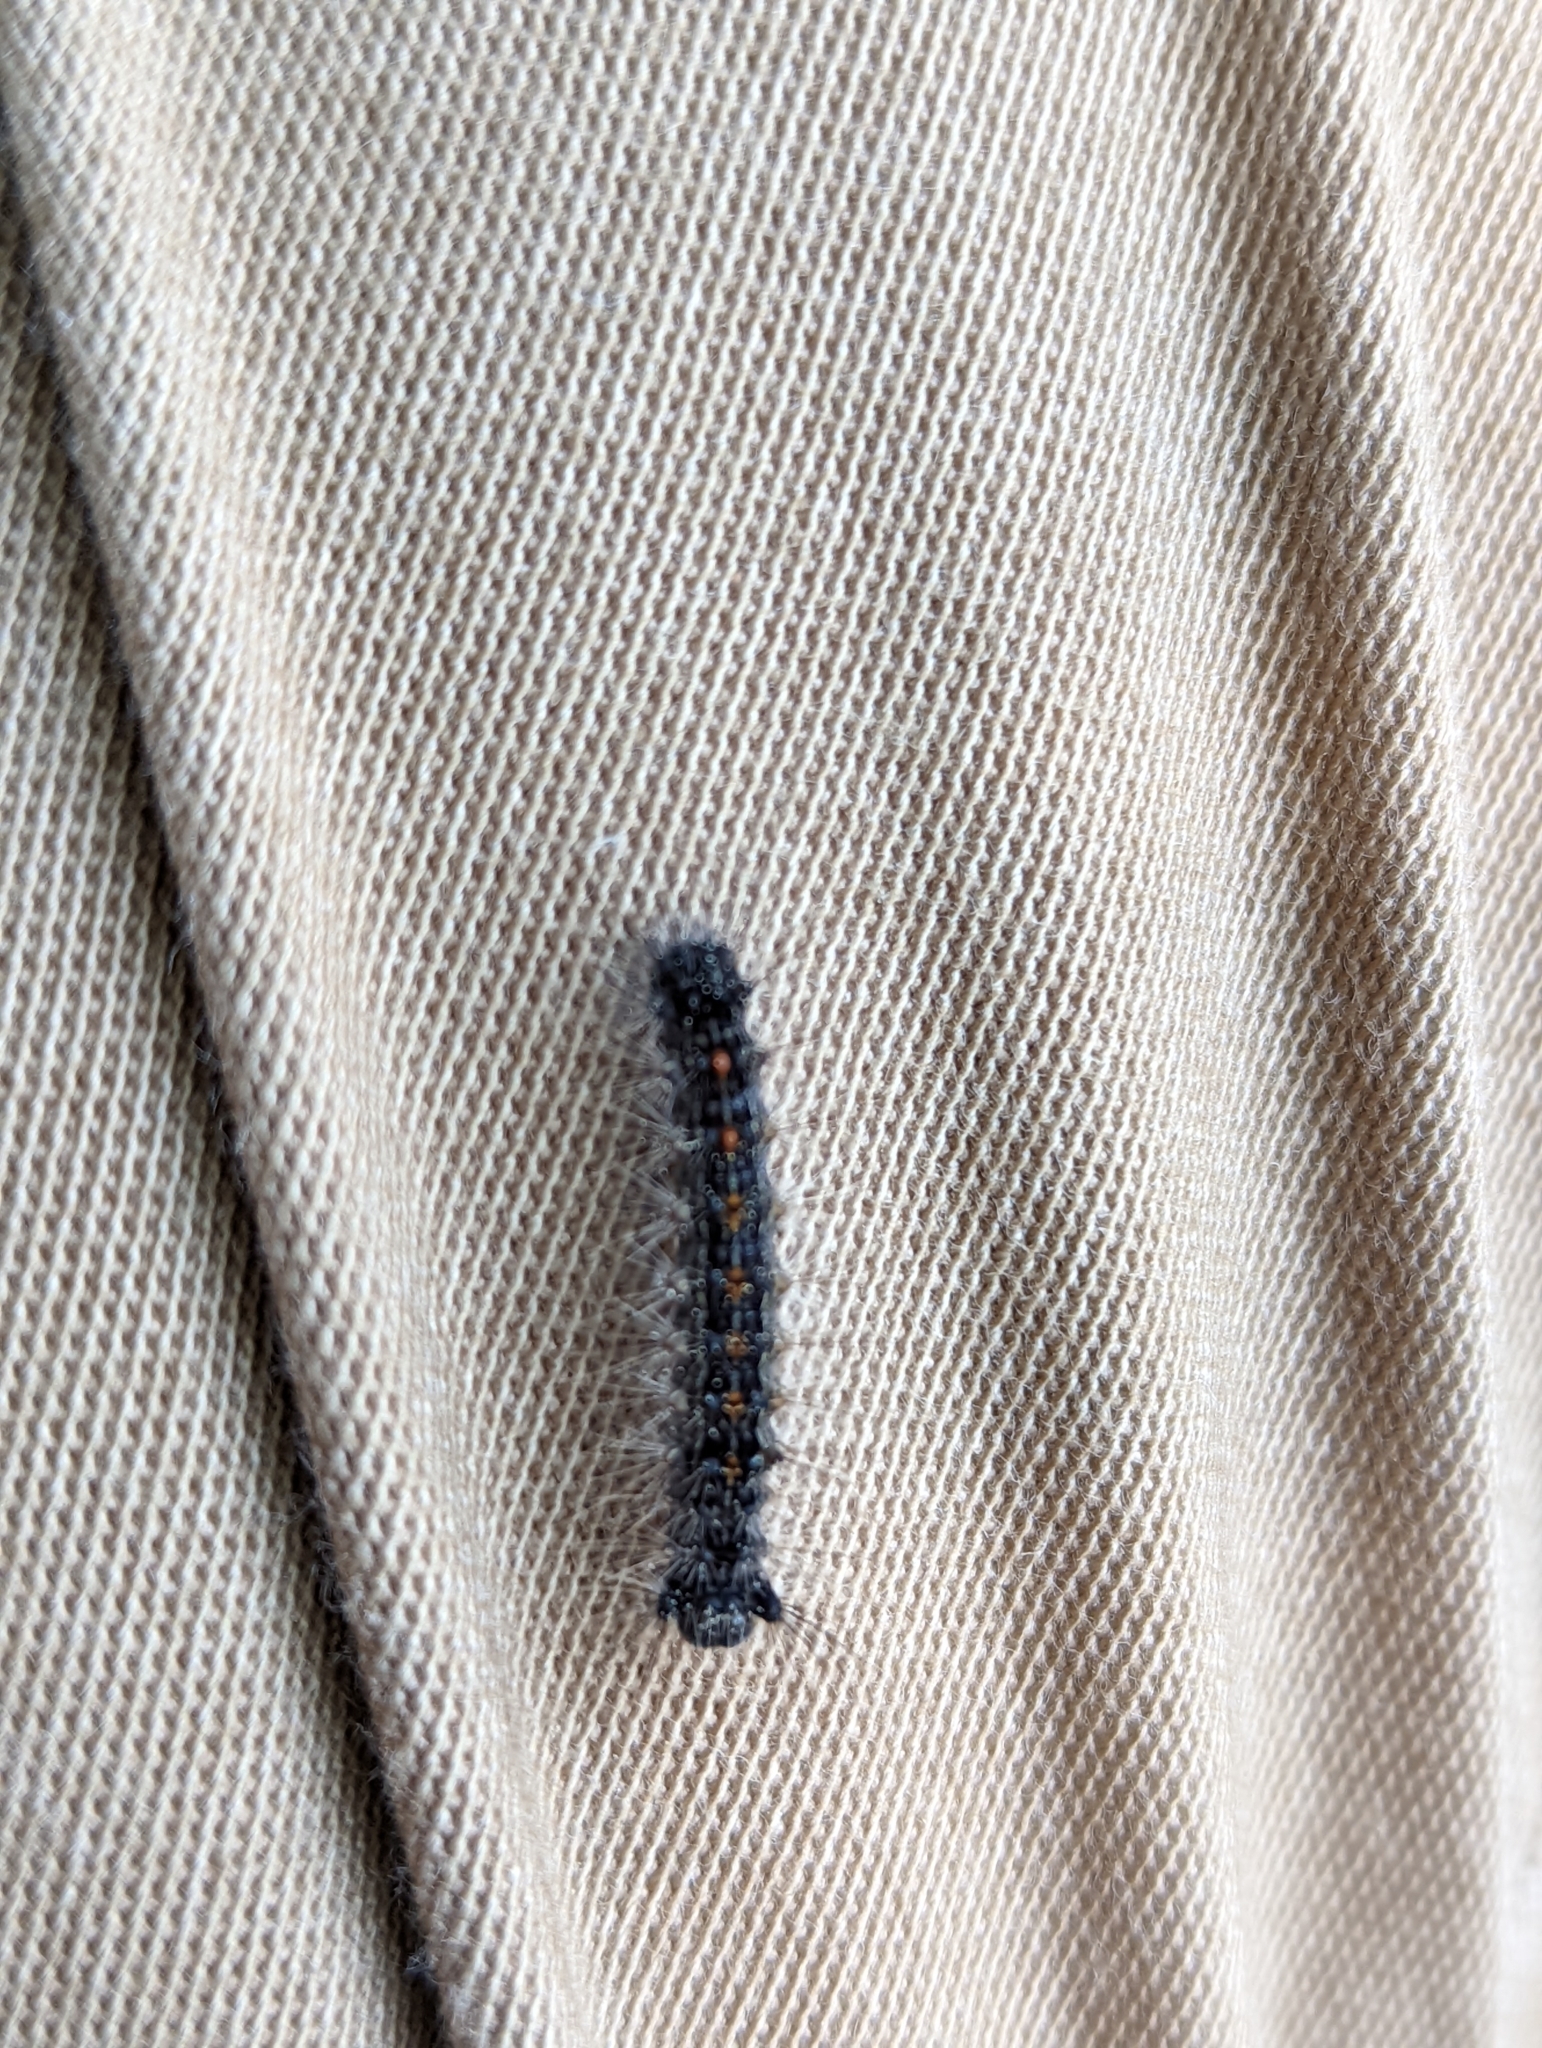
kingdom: Animalia
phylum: Arthropoda
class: Insecta
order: Lepidoptera
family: Erebidae
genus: Lymantria
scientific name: Lymantria dispar
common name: Gypsy moth
